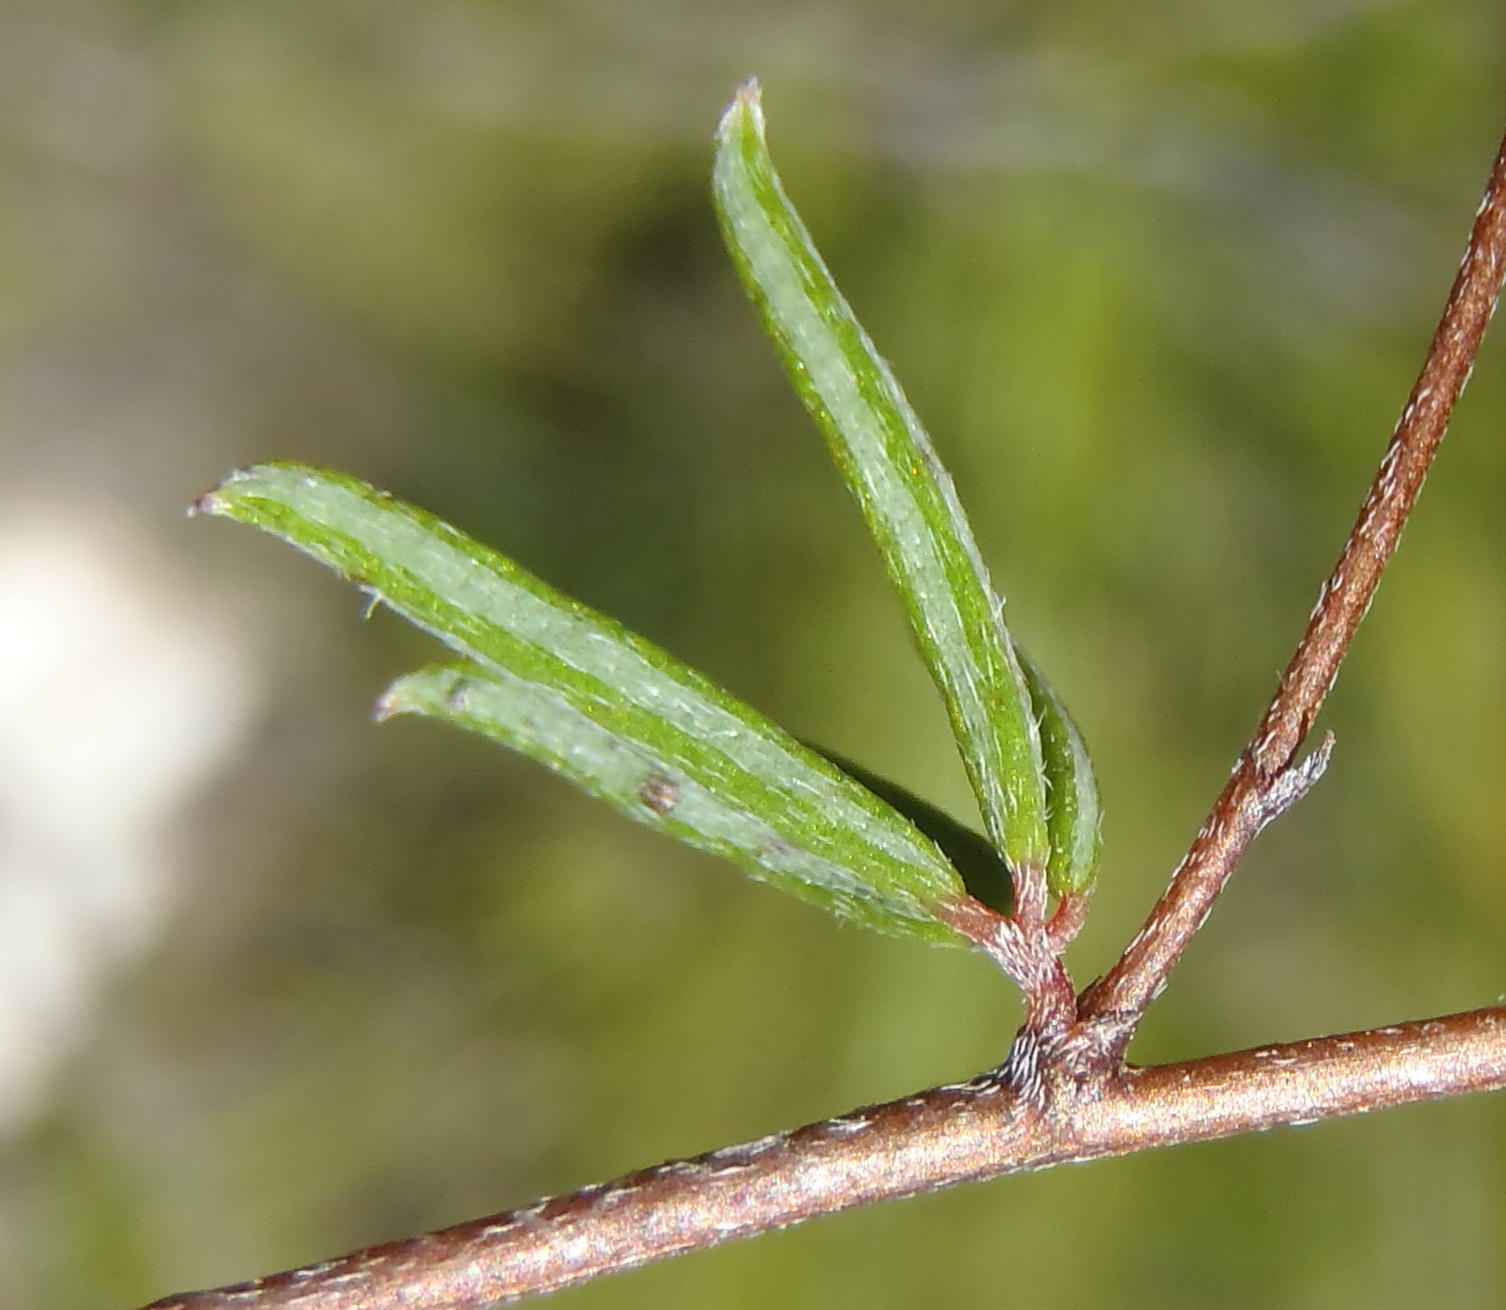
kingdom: Plantae
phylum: Tracheophyta
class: Magnoliopsida
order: Fabales
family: Fabaceae
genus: Indigofera
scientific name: Indigofera setosa
